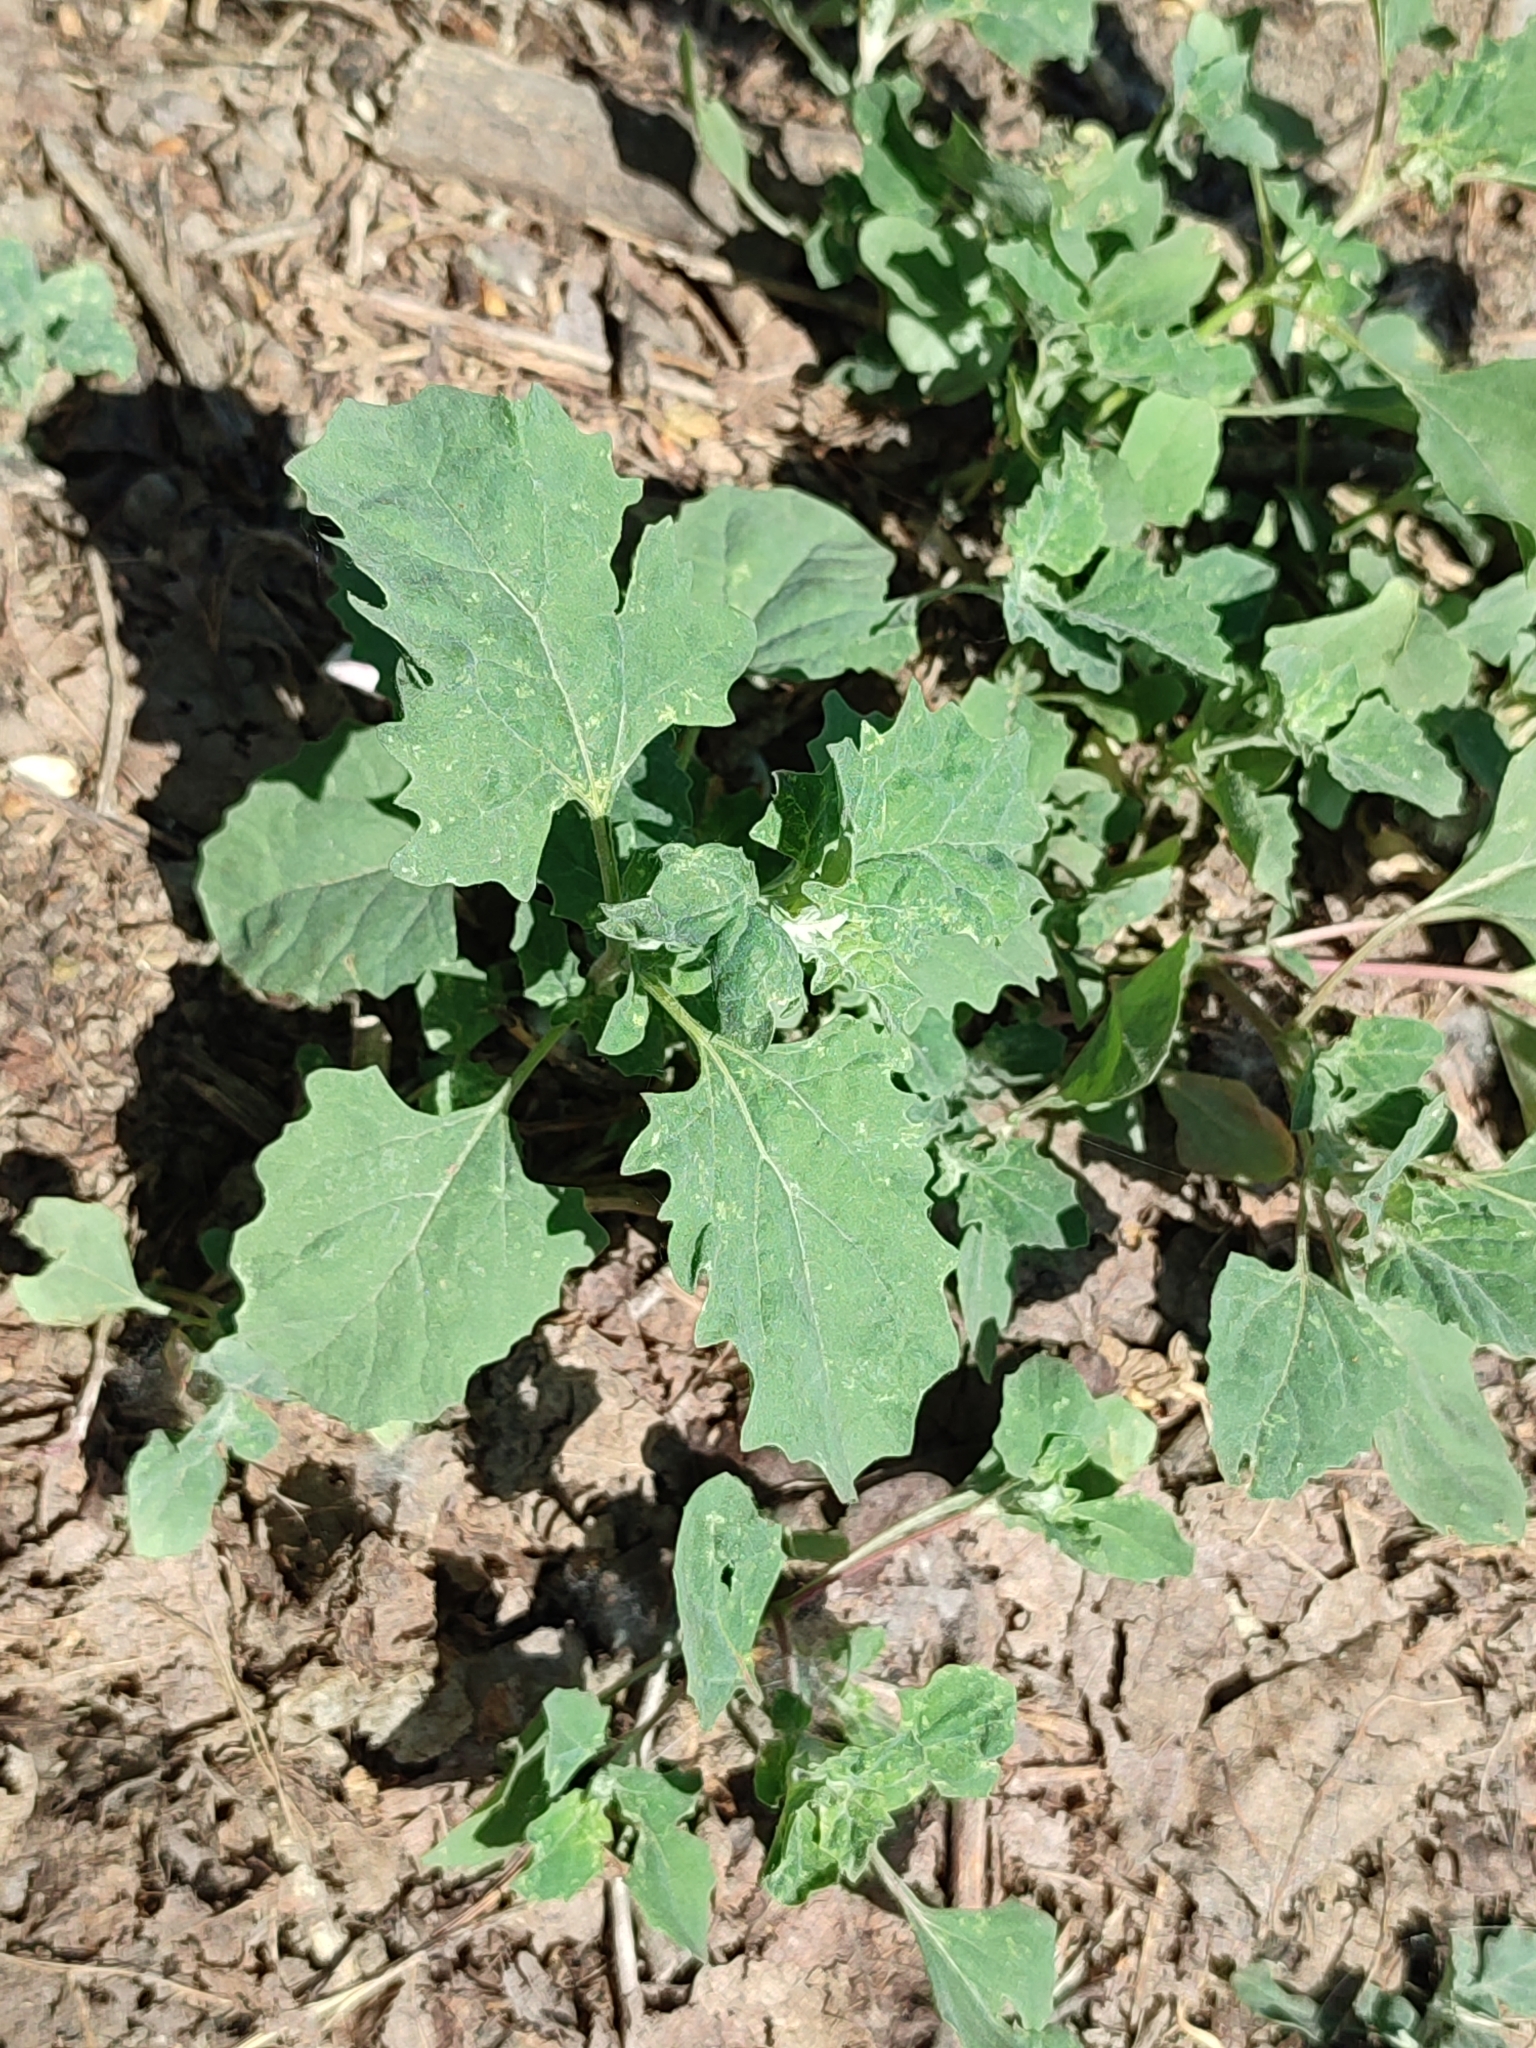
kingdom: Plantae
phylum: Tracheophyta
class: Magnoliopsida
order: Caryophyllales
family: Amaranthaceae
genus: Atriplex
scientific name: Atriplex tatarica
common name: Tatarian orache
